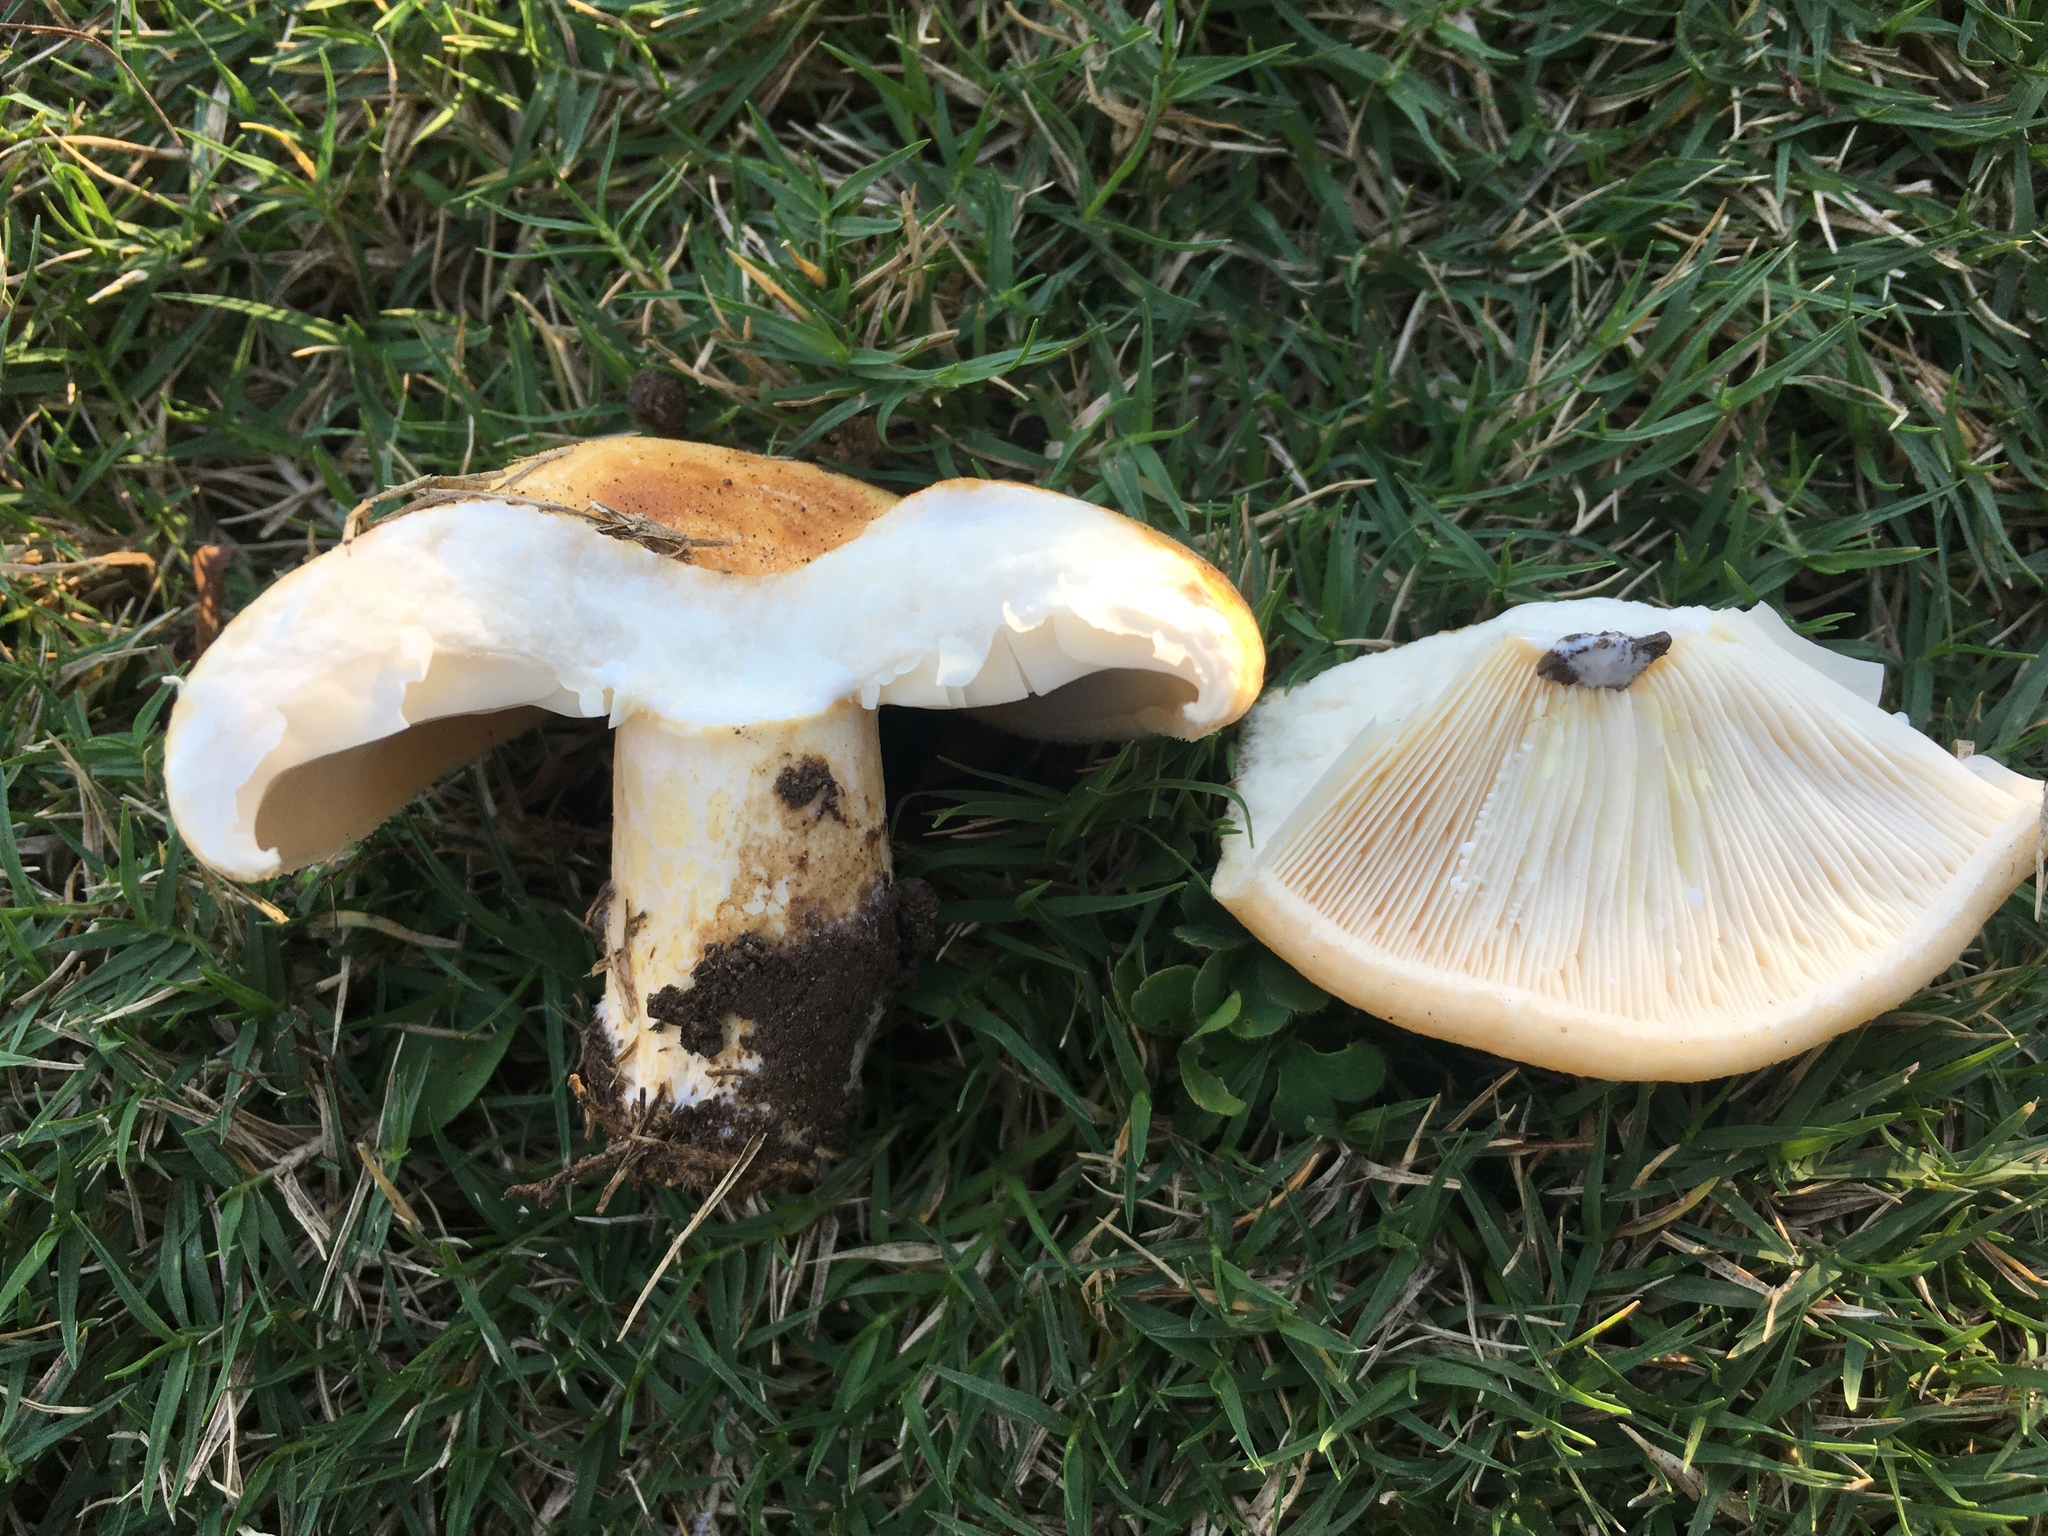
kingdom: Fungi
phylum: Basidiomycota
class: Agaricomycetes
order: Russulales
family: Russulaceae
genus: Lactarius
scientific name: Lactarius alnicola
